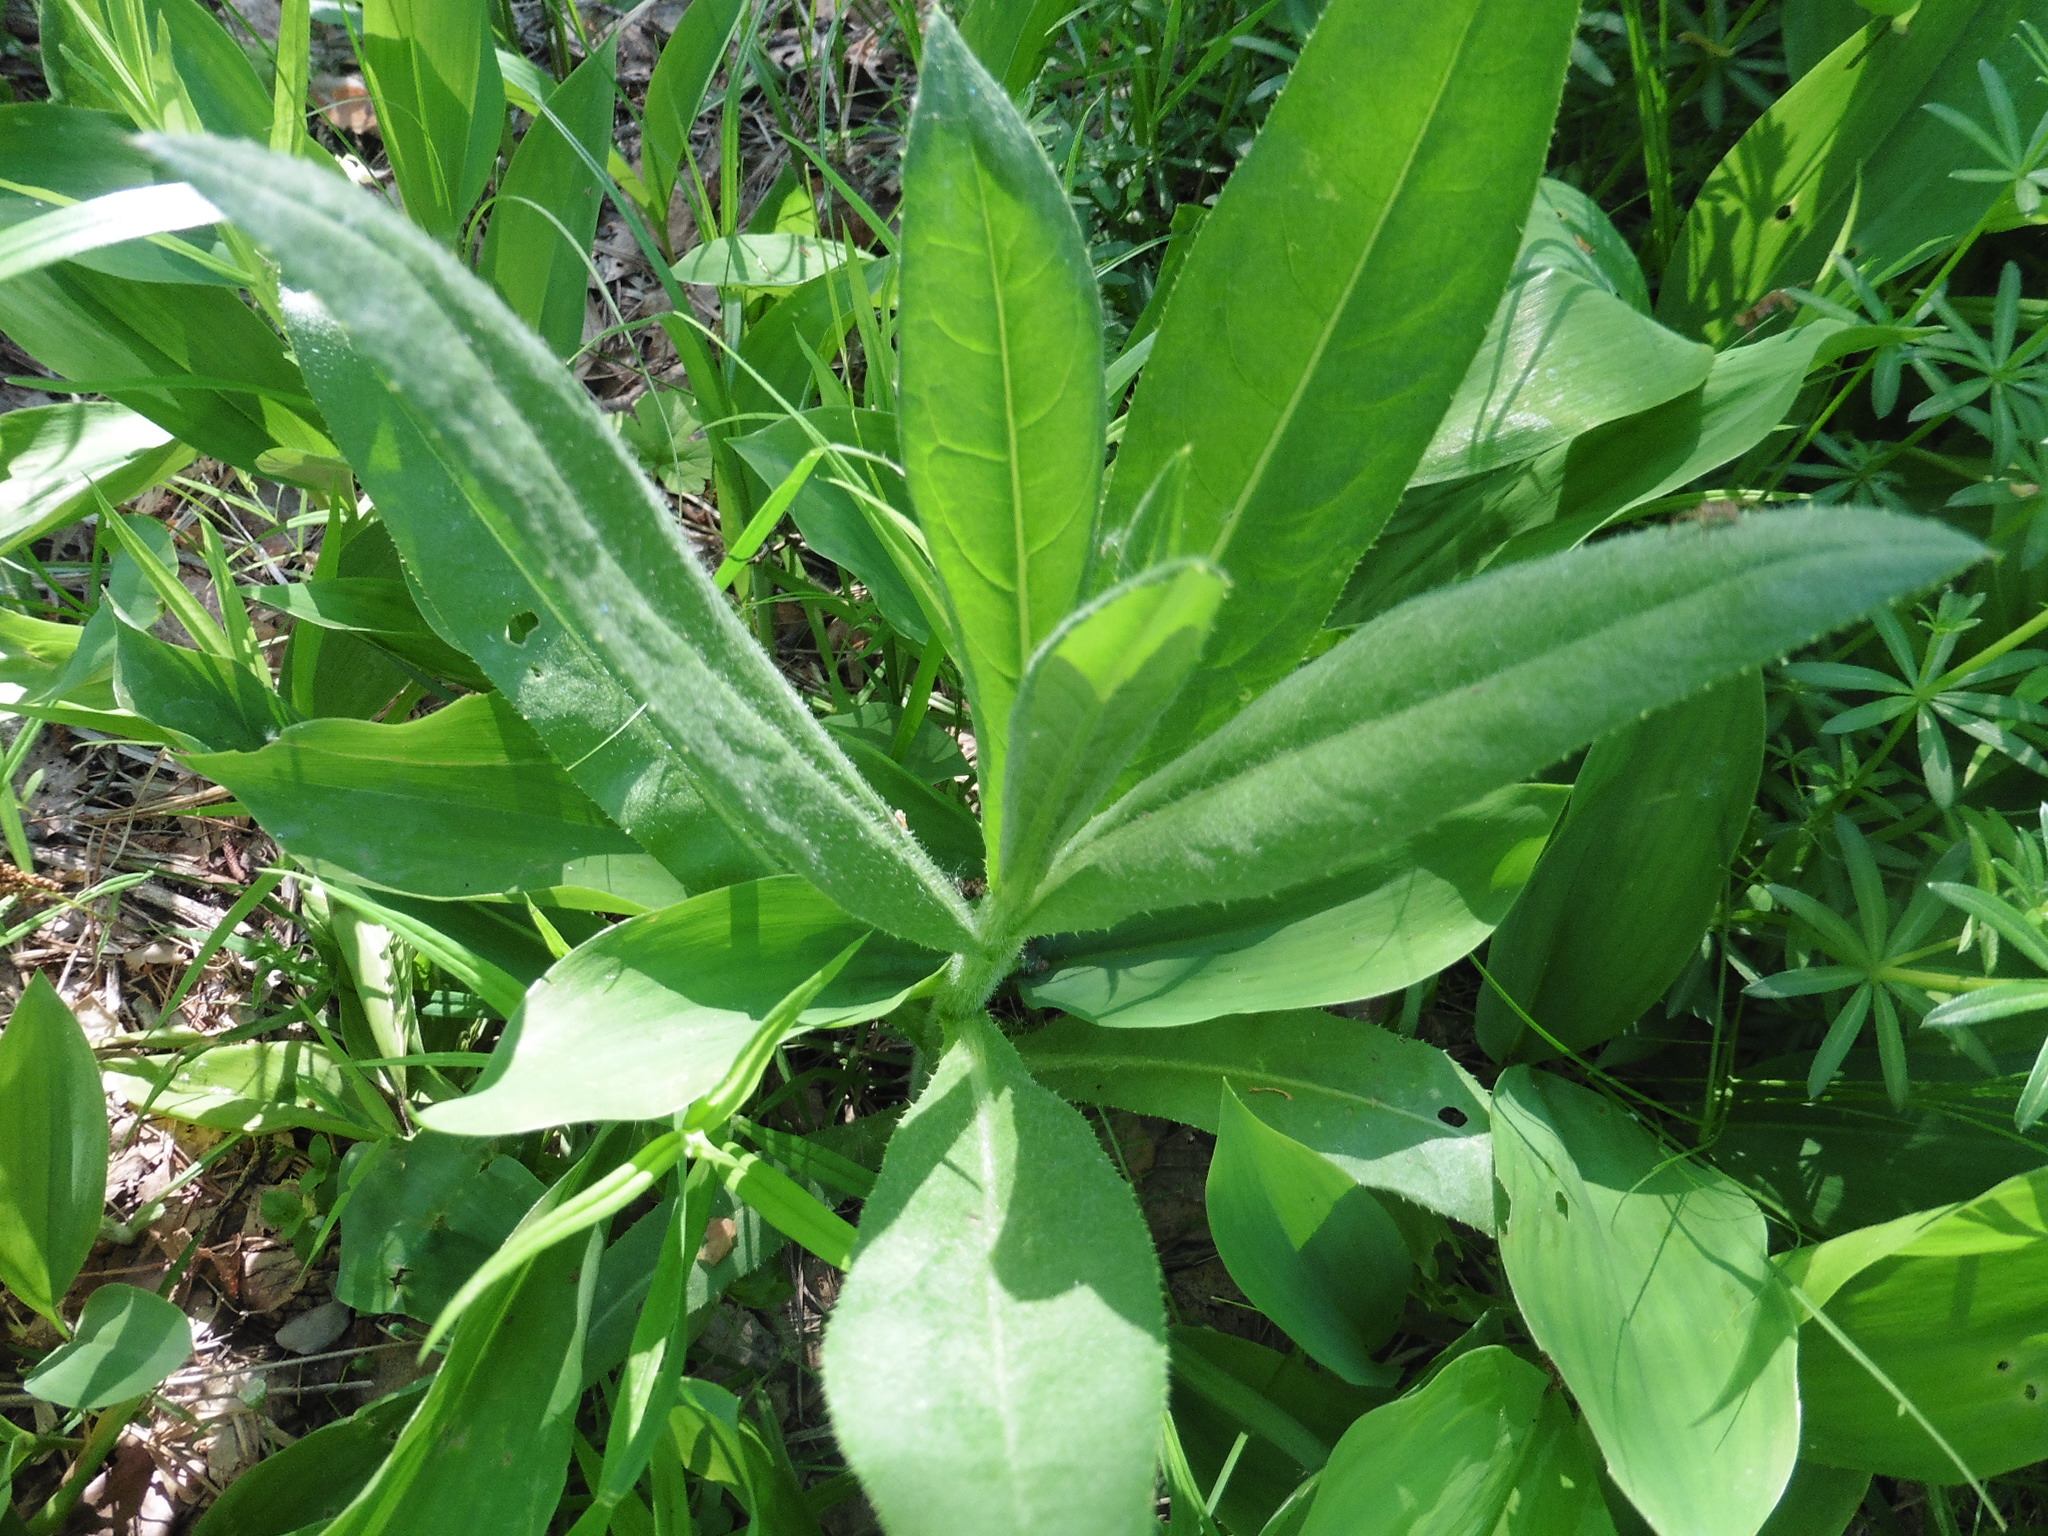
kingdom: Plantae
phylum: Tracheophyta
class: Magnoliopsida
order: Asterales
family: Asteraceae
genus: Cirsium
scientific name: Cirsium arvense
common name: Creeping thistle
